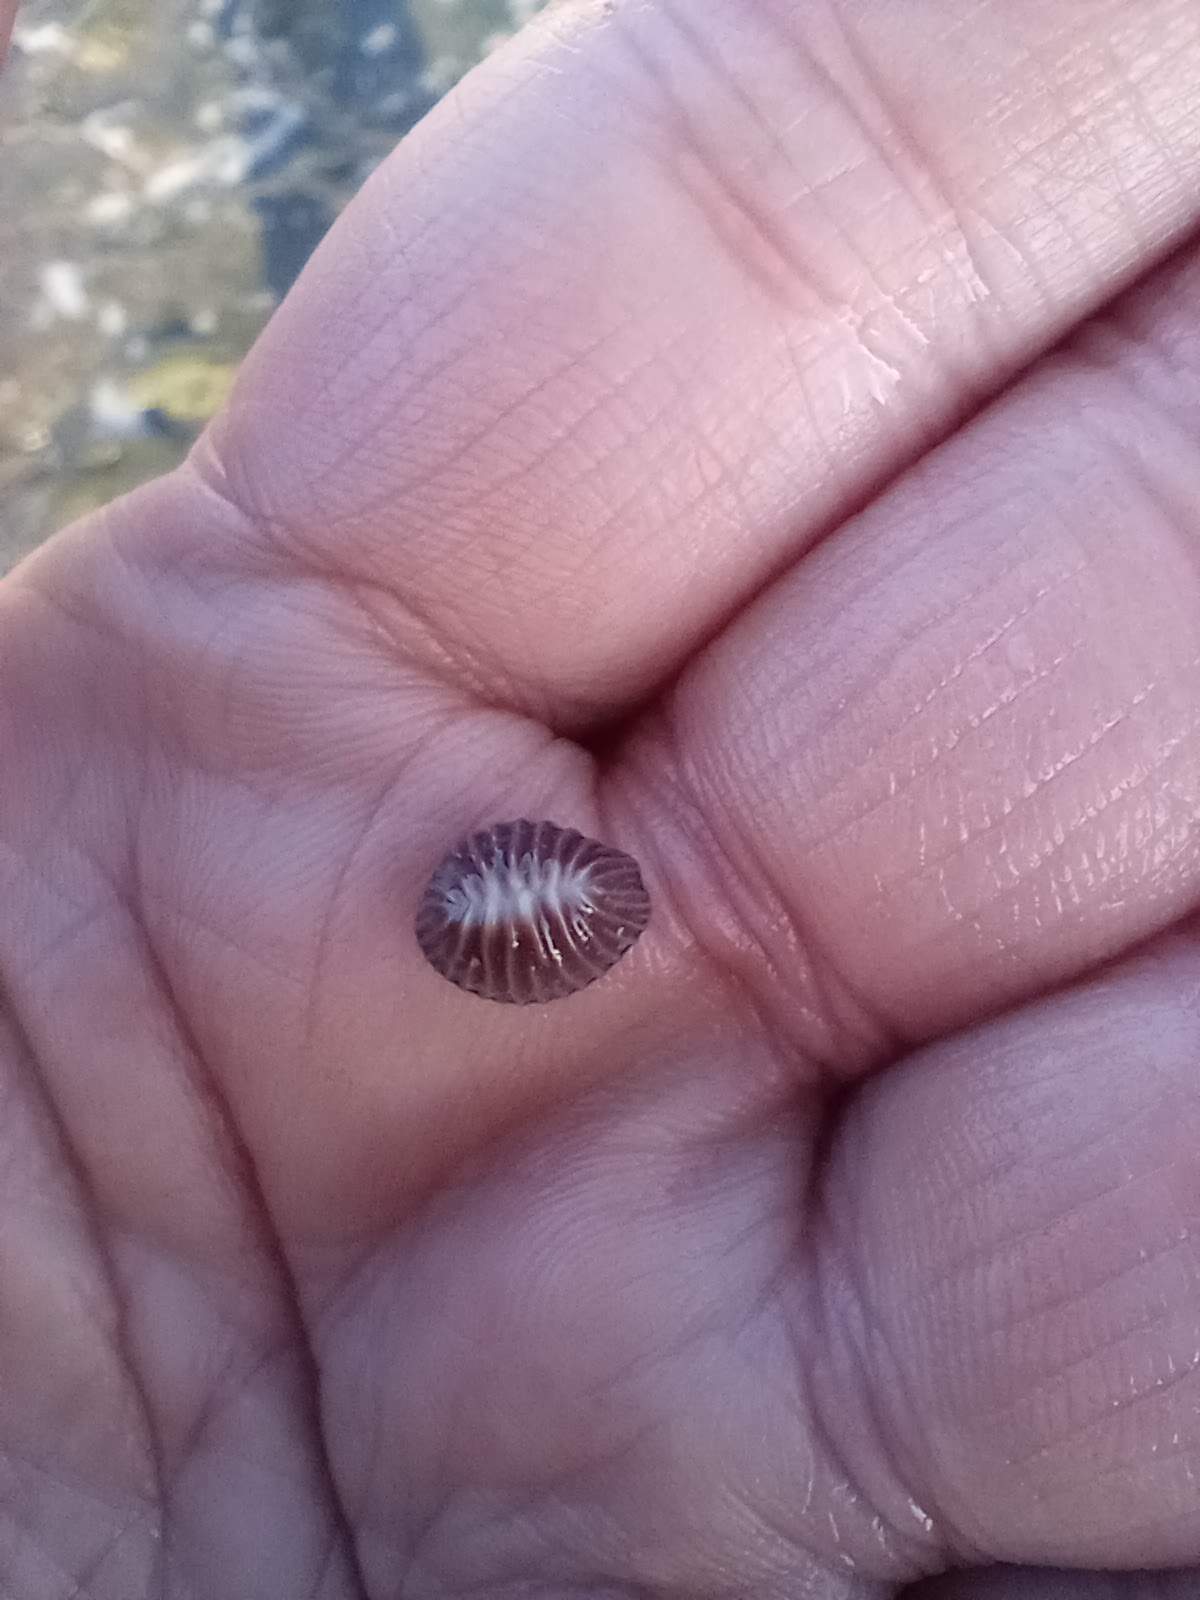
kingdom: Animalia
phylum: Mollusca
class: Gastropoda
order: Littorinimorpha
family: Triviidae
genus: Pseudopusula
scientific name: Pseudopusula californiana
